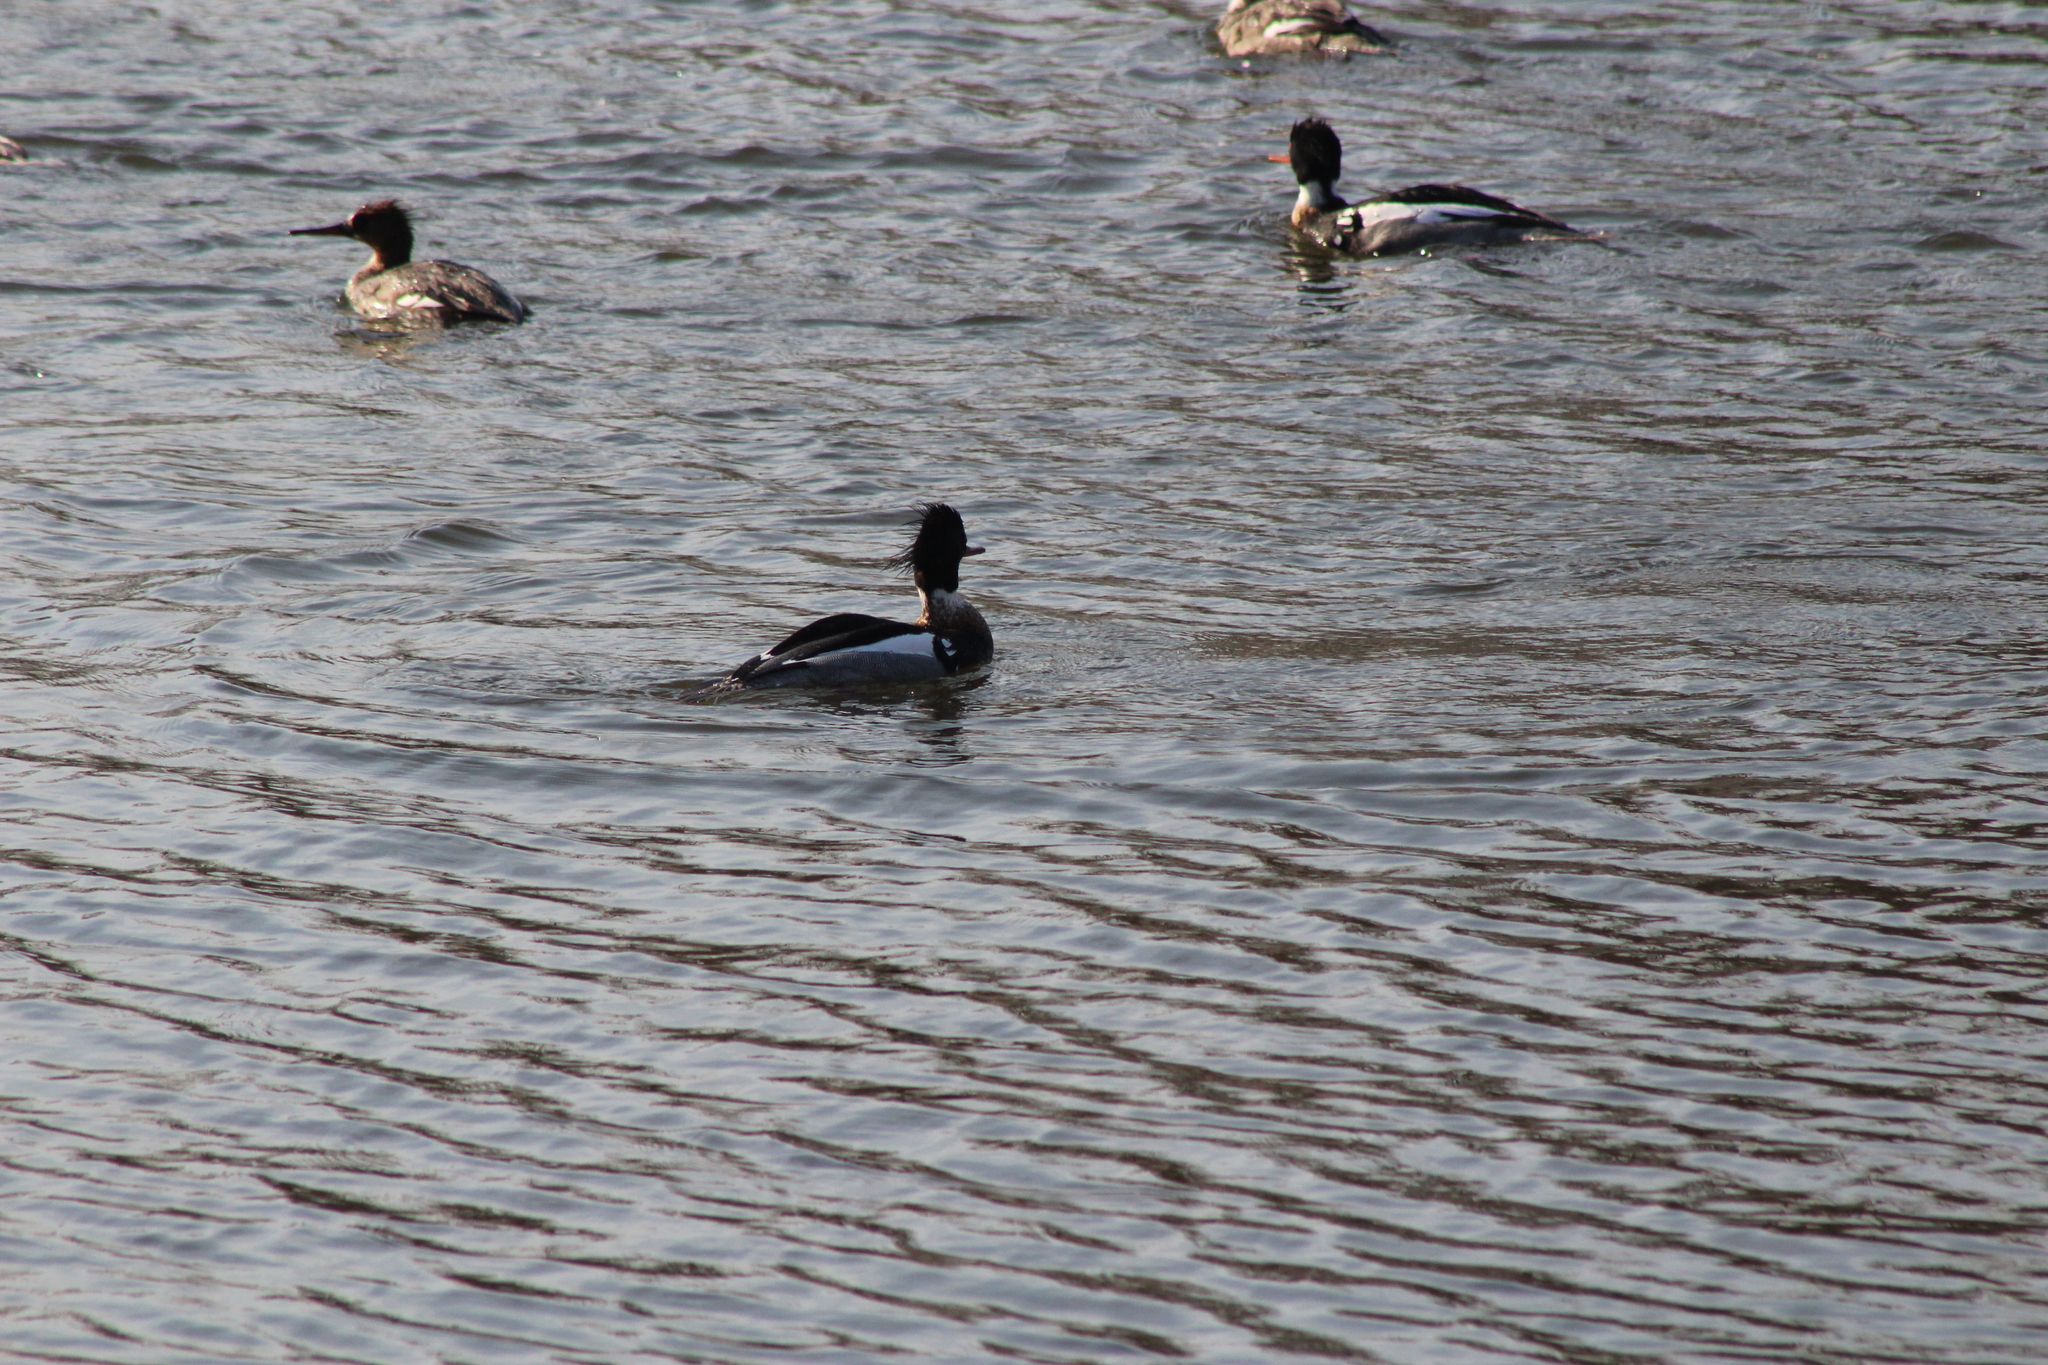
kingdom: Animalia
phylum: Chordata
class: Aves
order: Anseriformes
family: Anatidae
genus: Mergus
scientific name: Mergus serrator
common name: Red-breasted merganser
